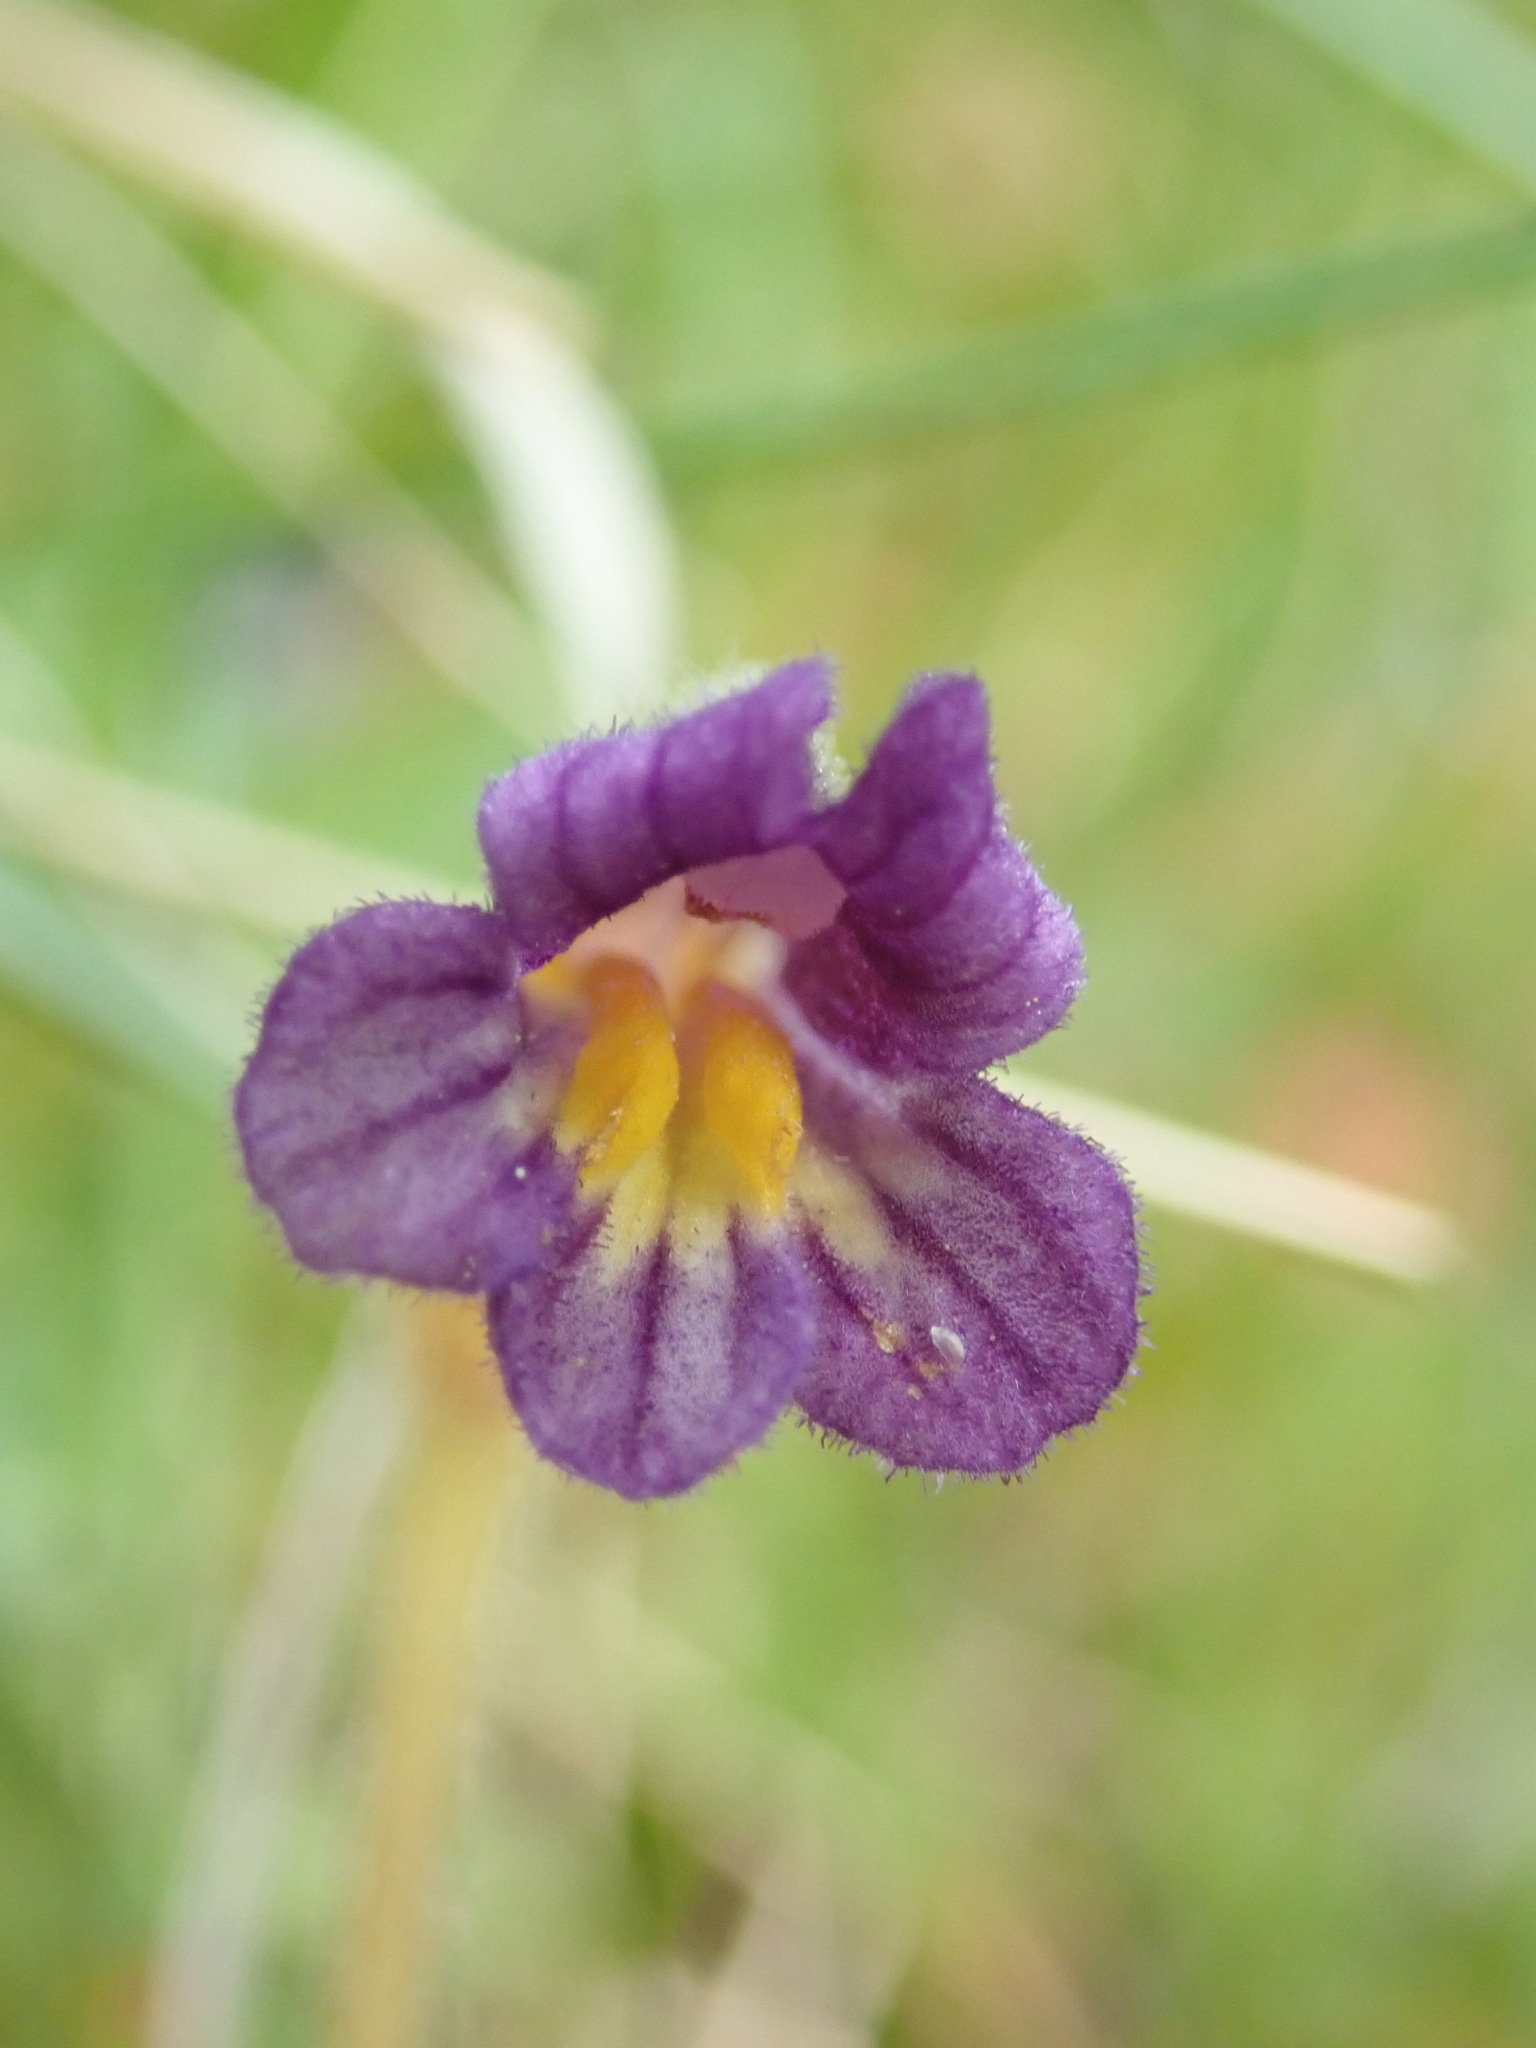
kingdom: Plantae
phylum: Tracheophyta
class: Magnoliopsida
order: Lamiales
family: Orobanchaceae
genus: Aphyllon
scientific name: Aphyllon uniflorum
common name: One-flowered broomrape
